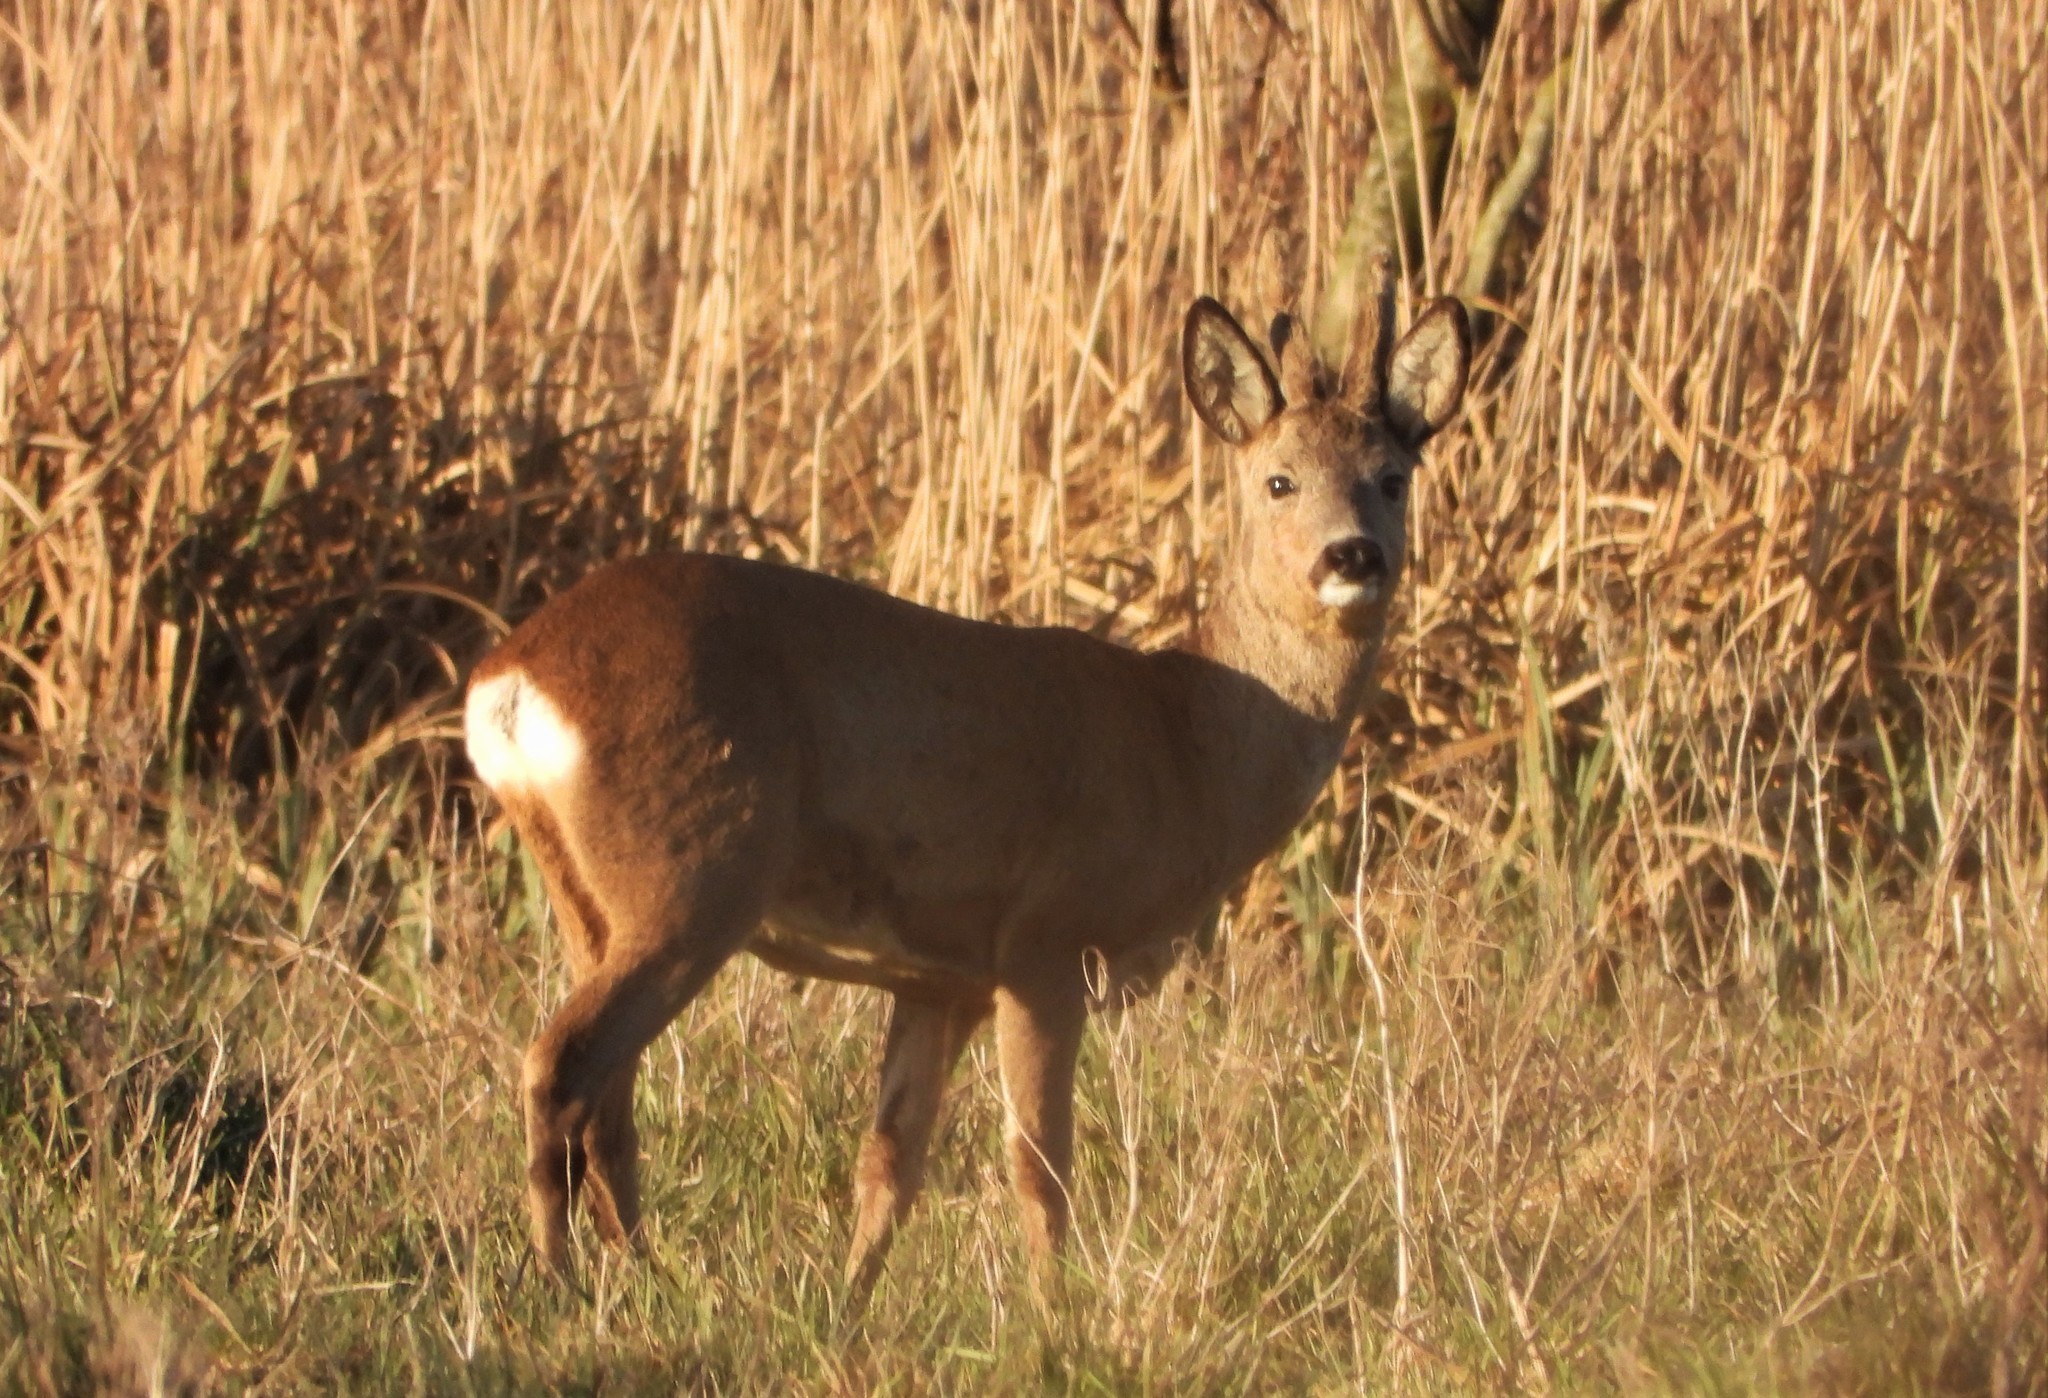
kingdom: Animalia
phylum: Chordata
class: Mammalia
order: Artiodactyla
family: Cervidae
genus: Capreolus
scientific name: Capreolus capreolus
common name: Western roe deer
